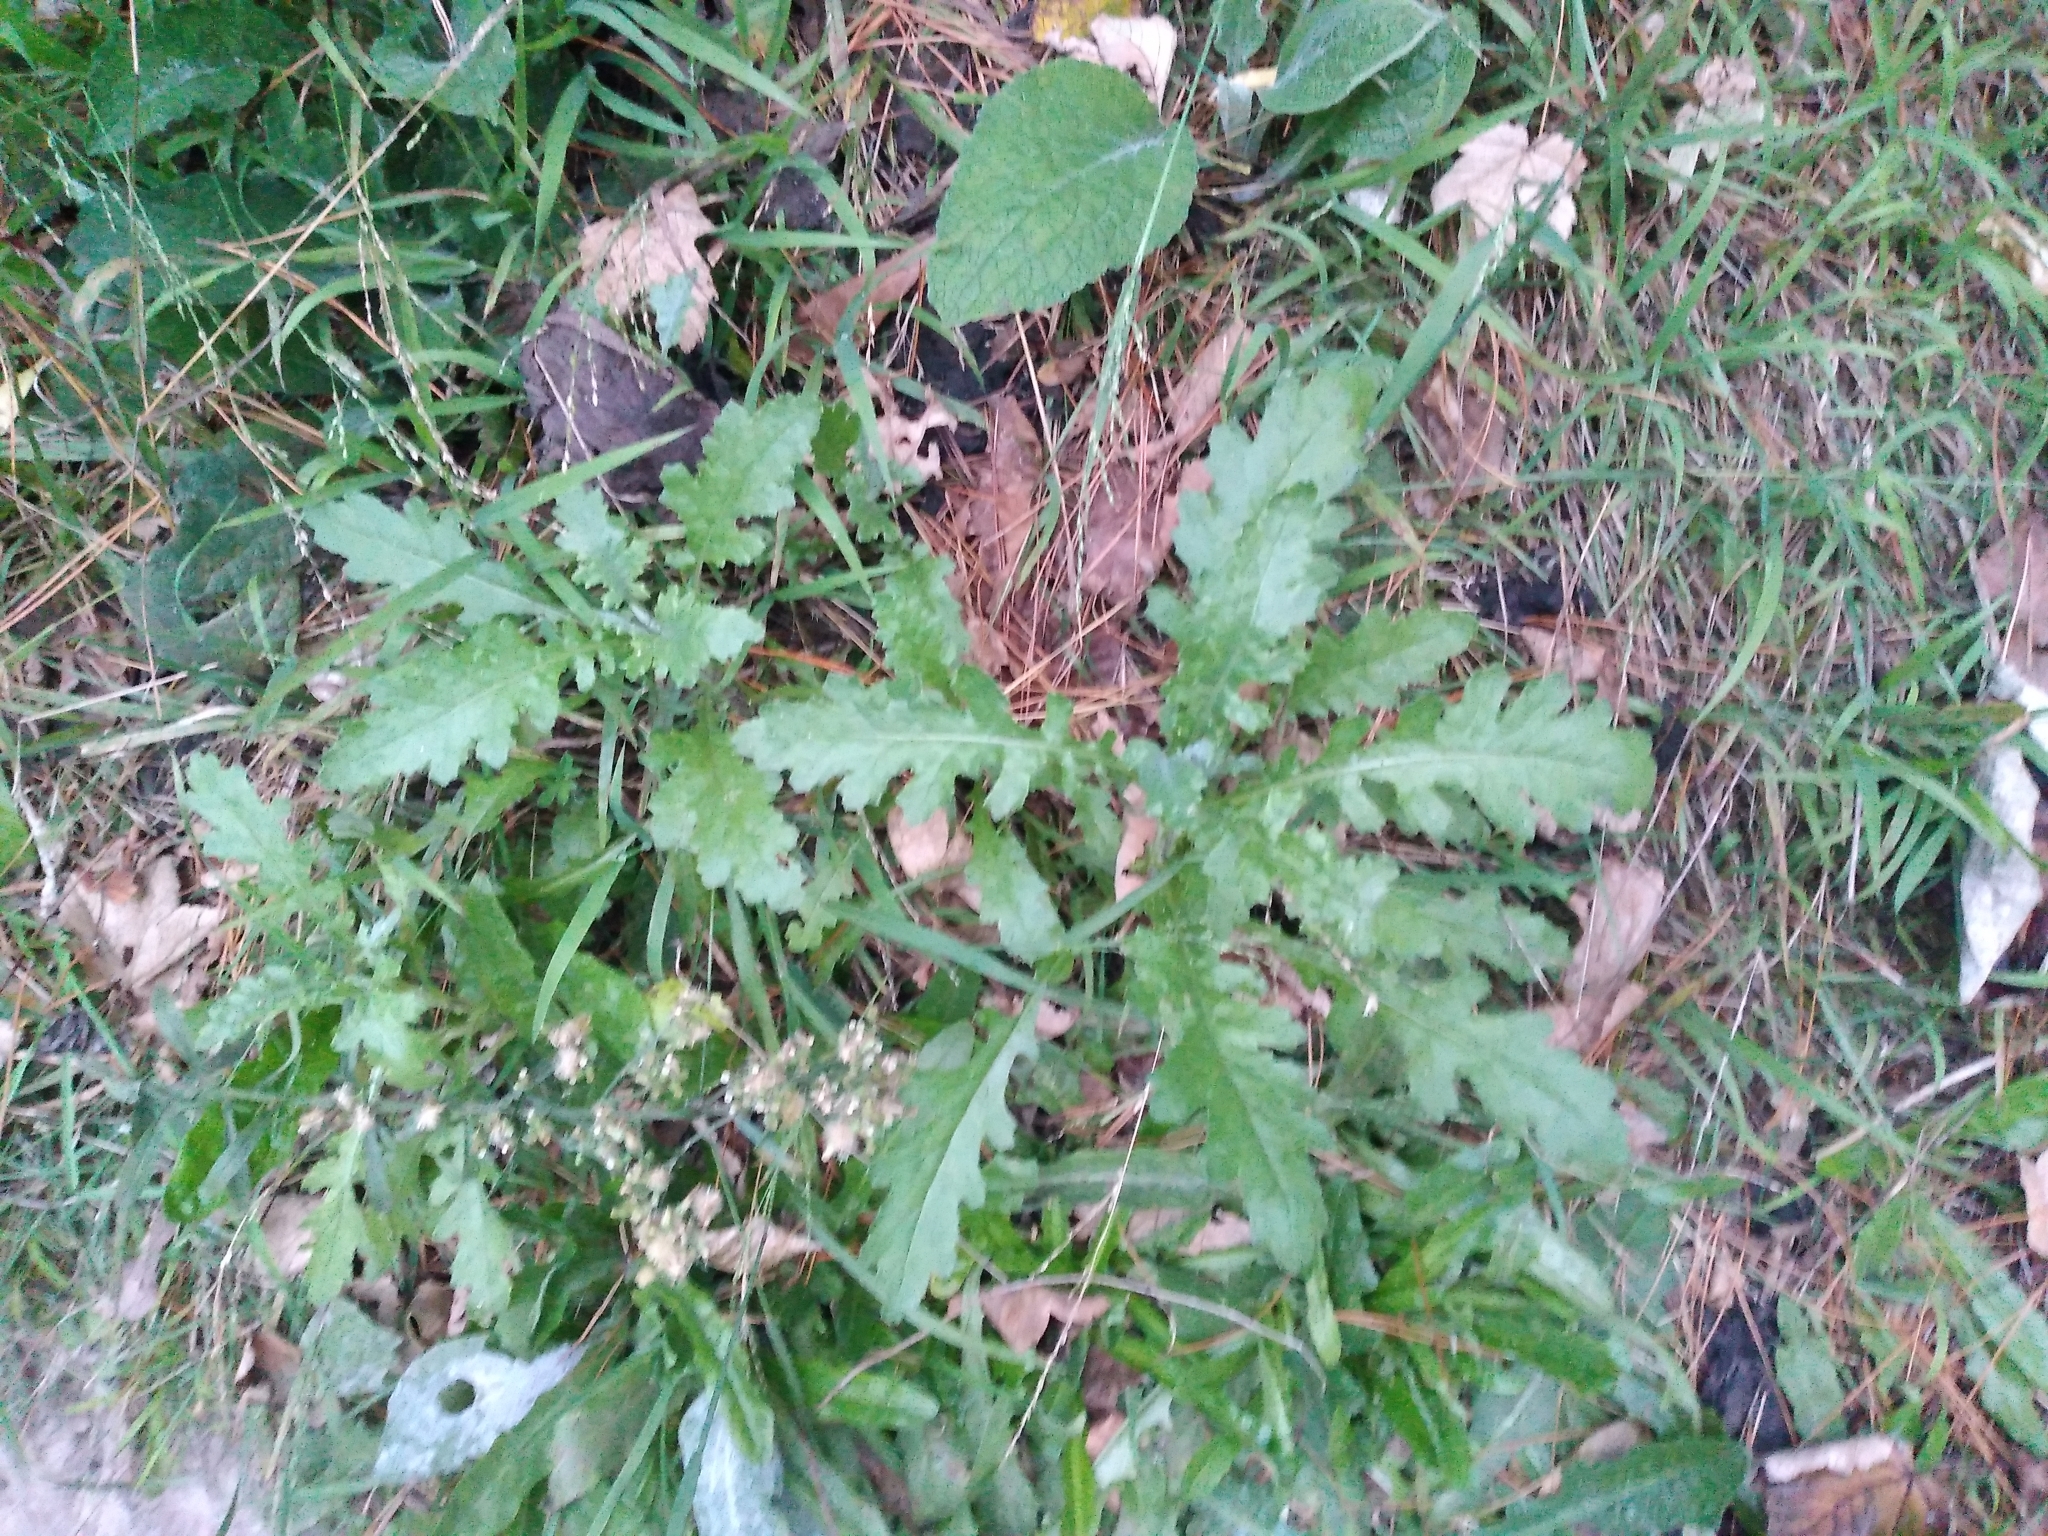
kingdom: Plantae
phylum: Tracheophyta
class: Magnoliopsida
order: Asterales
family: Asteraceae
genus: Senecio
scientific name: Senecio glomeratus
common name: Cutleaf burnweed
